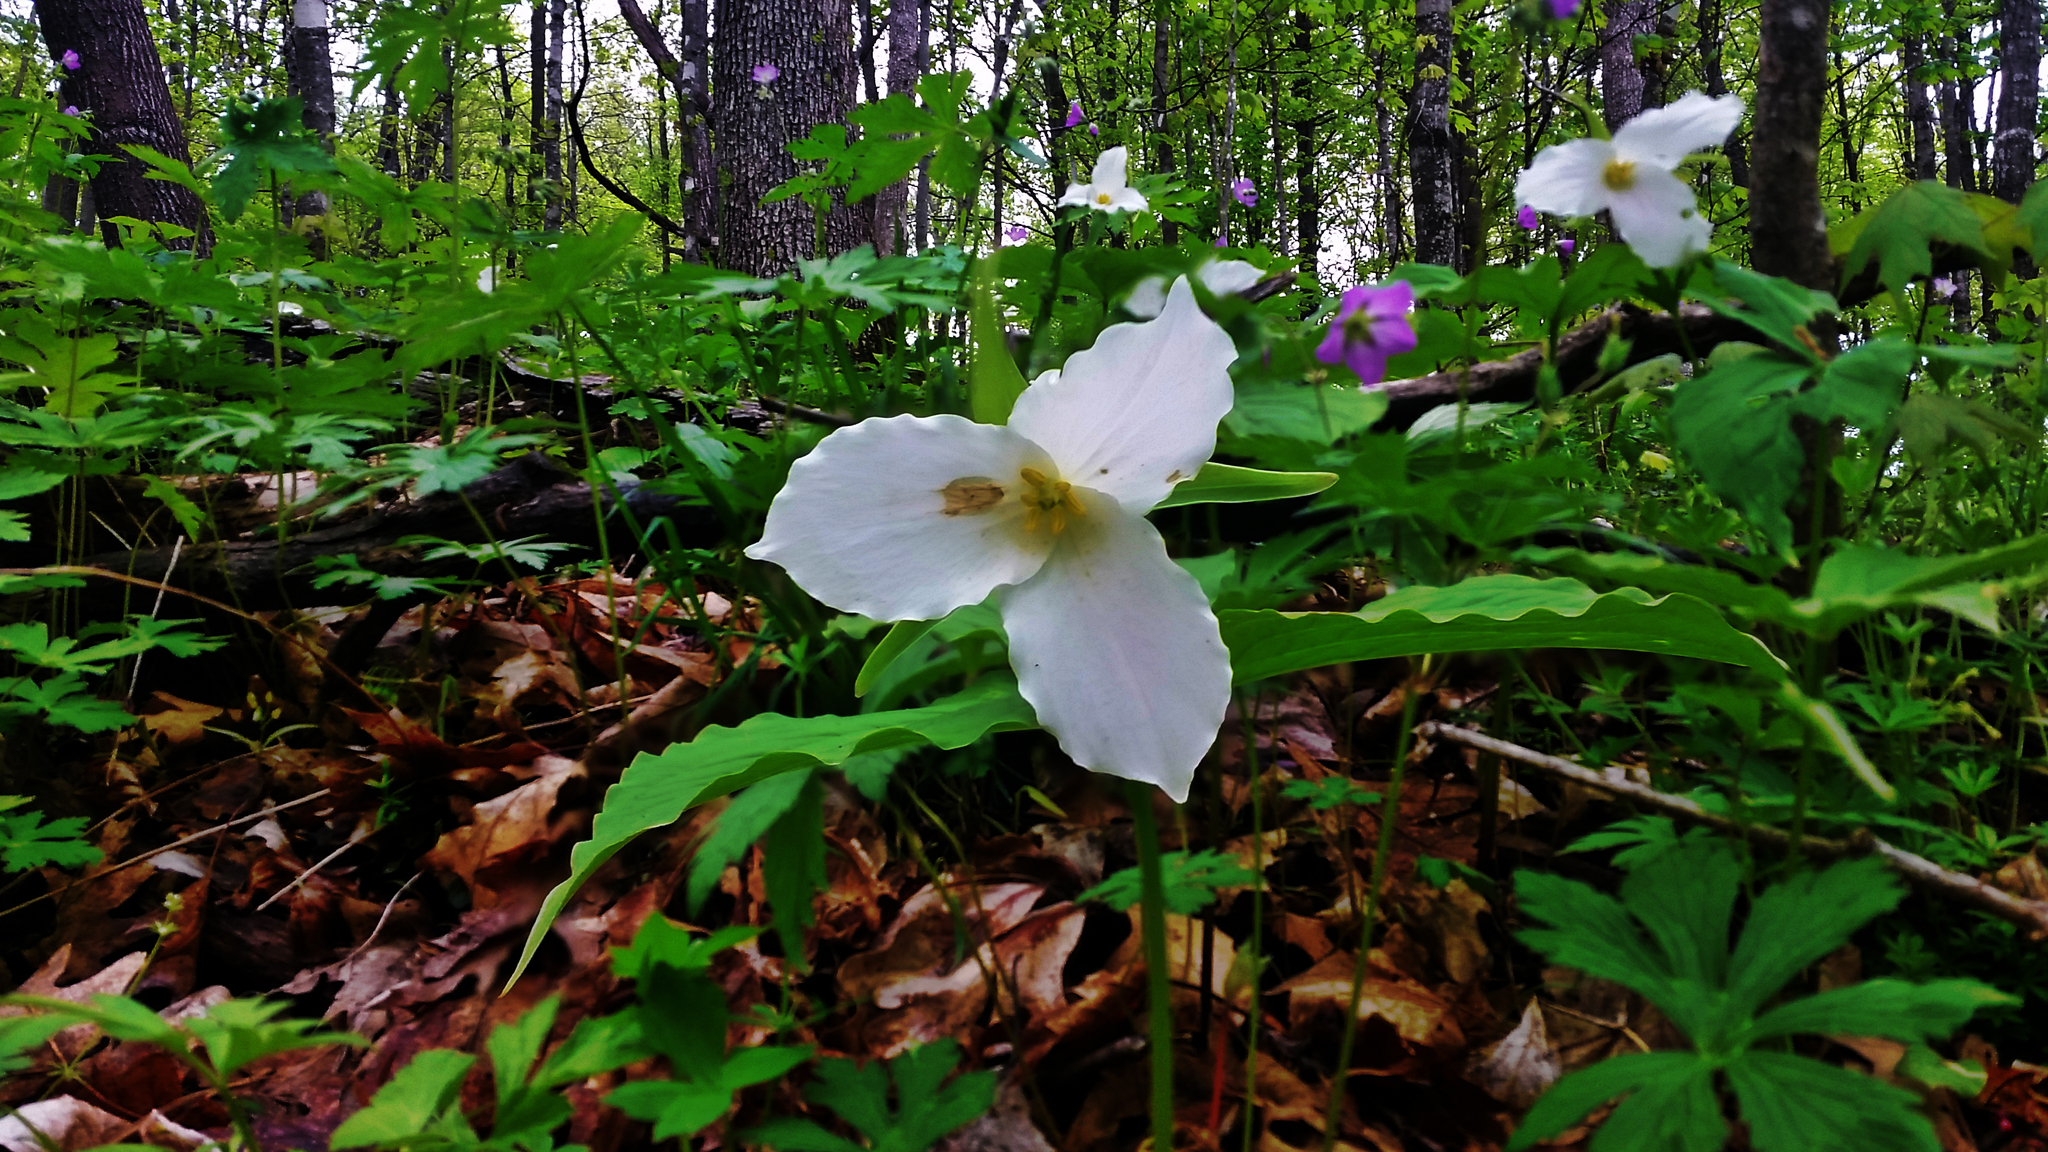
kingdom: Plantae
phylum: Tracheophyta
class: Liliopsida
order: Liliales
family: Melanthiaceae
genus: Trillium
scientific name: Trillium grandiflorum
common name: Great white trillium
